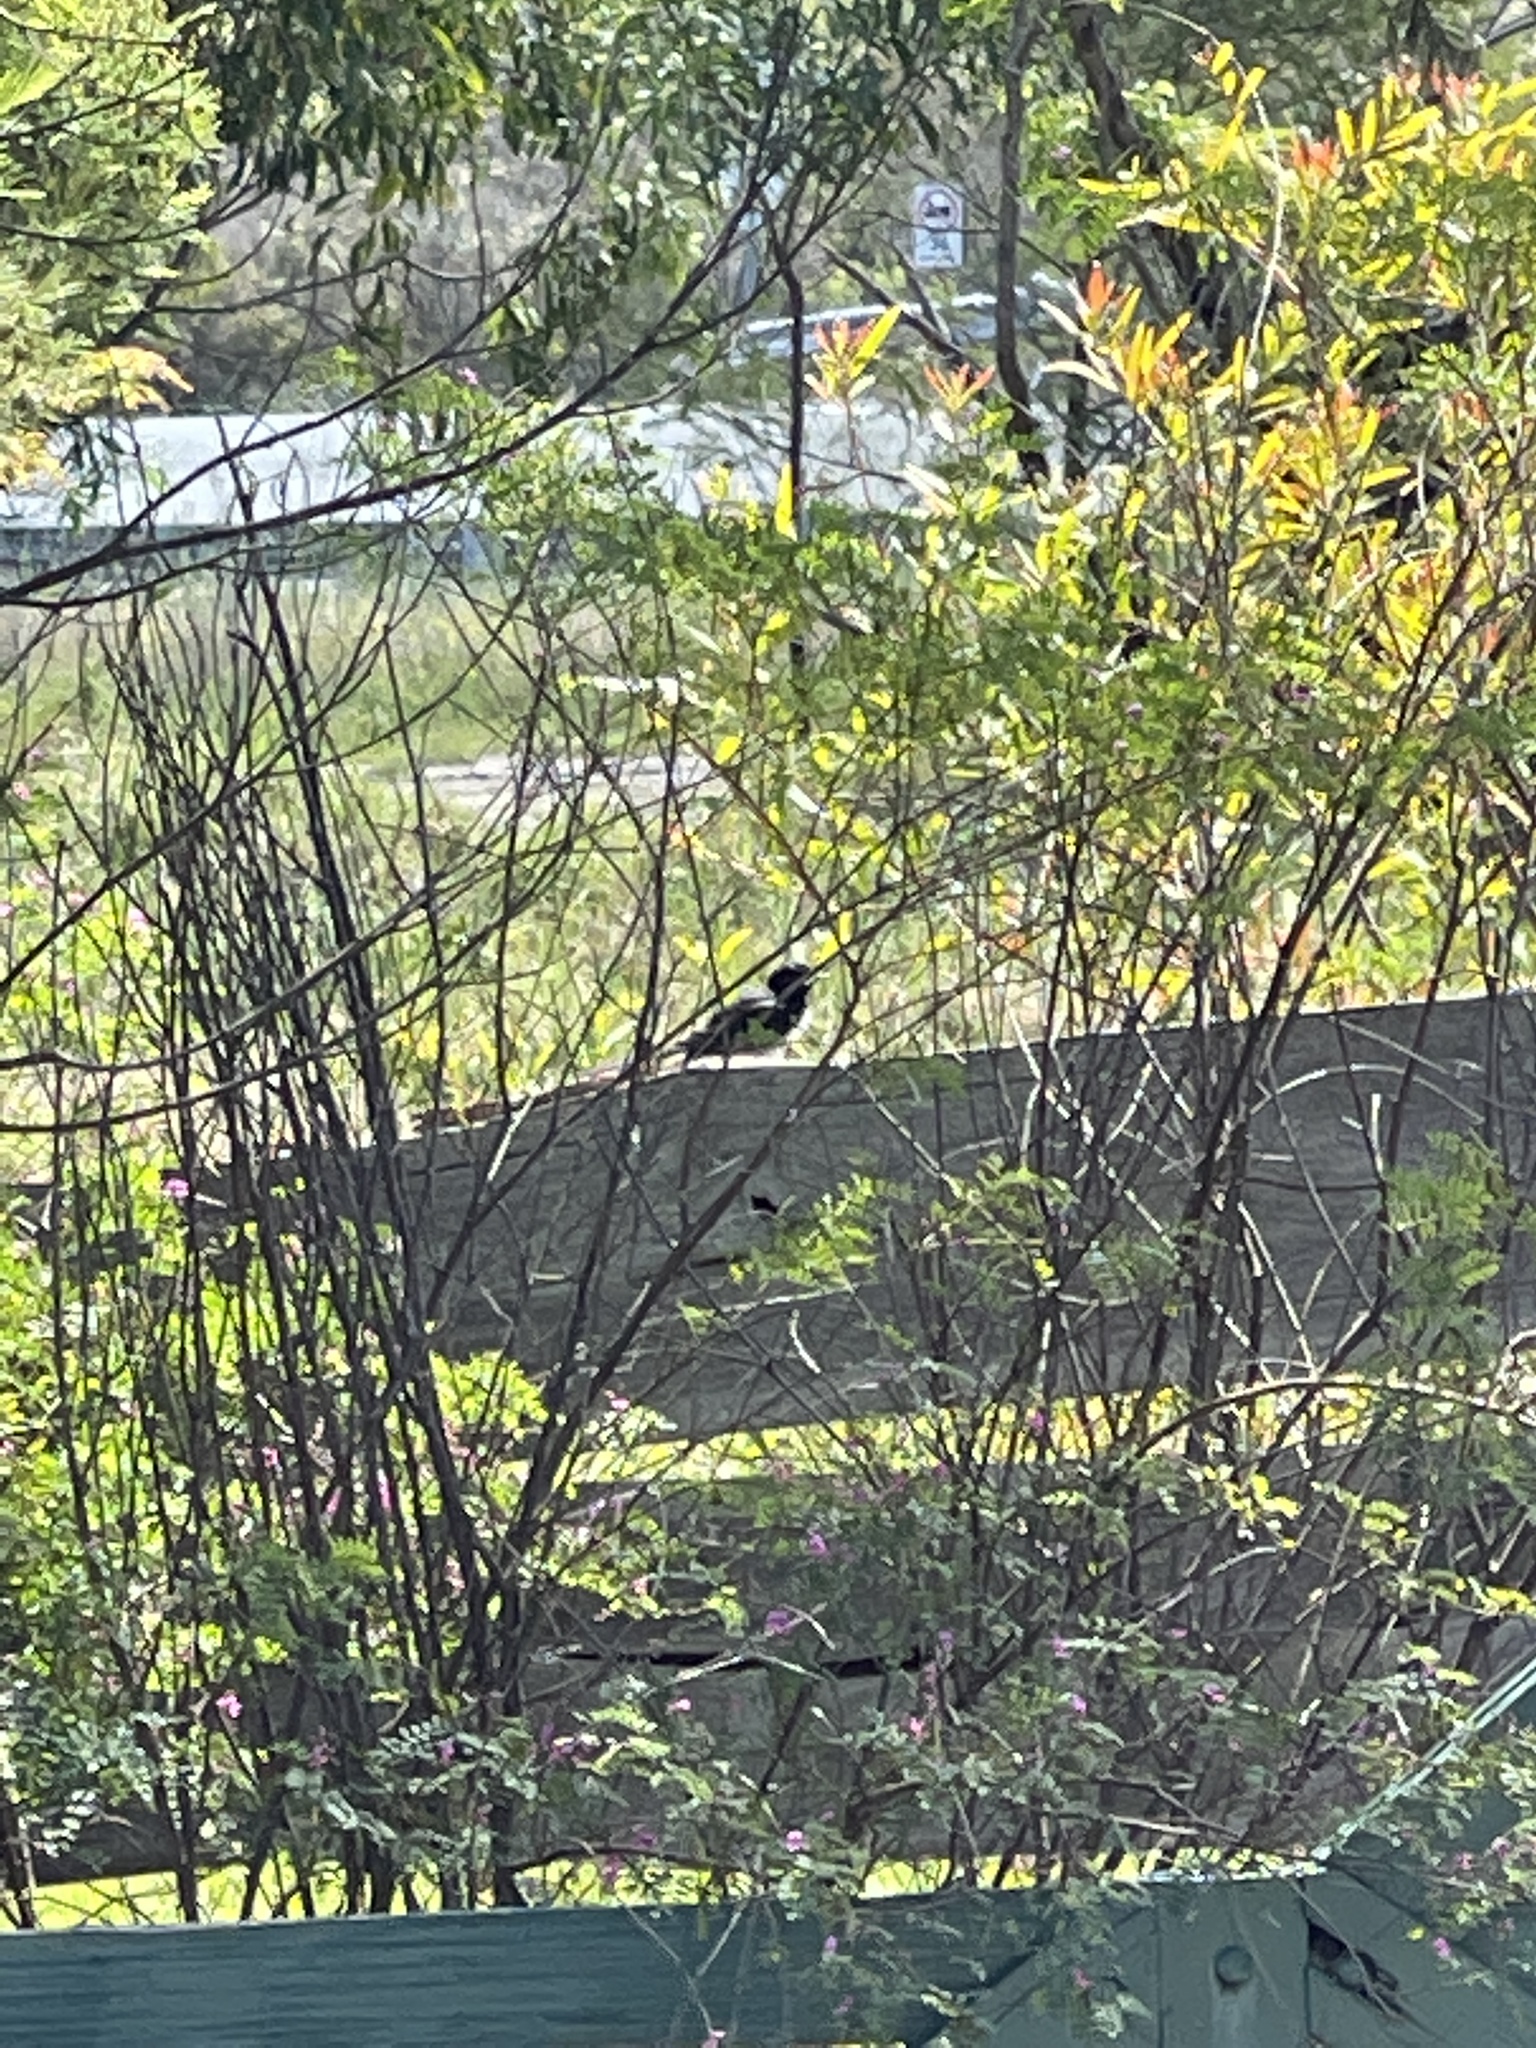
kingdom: Animalia
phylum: Chordata
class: Aves
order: Passeriformes
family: Rhipiduridae
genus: Rhipidura
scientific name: Rhipidura leucophrys
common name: Willie wagtail
